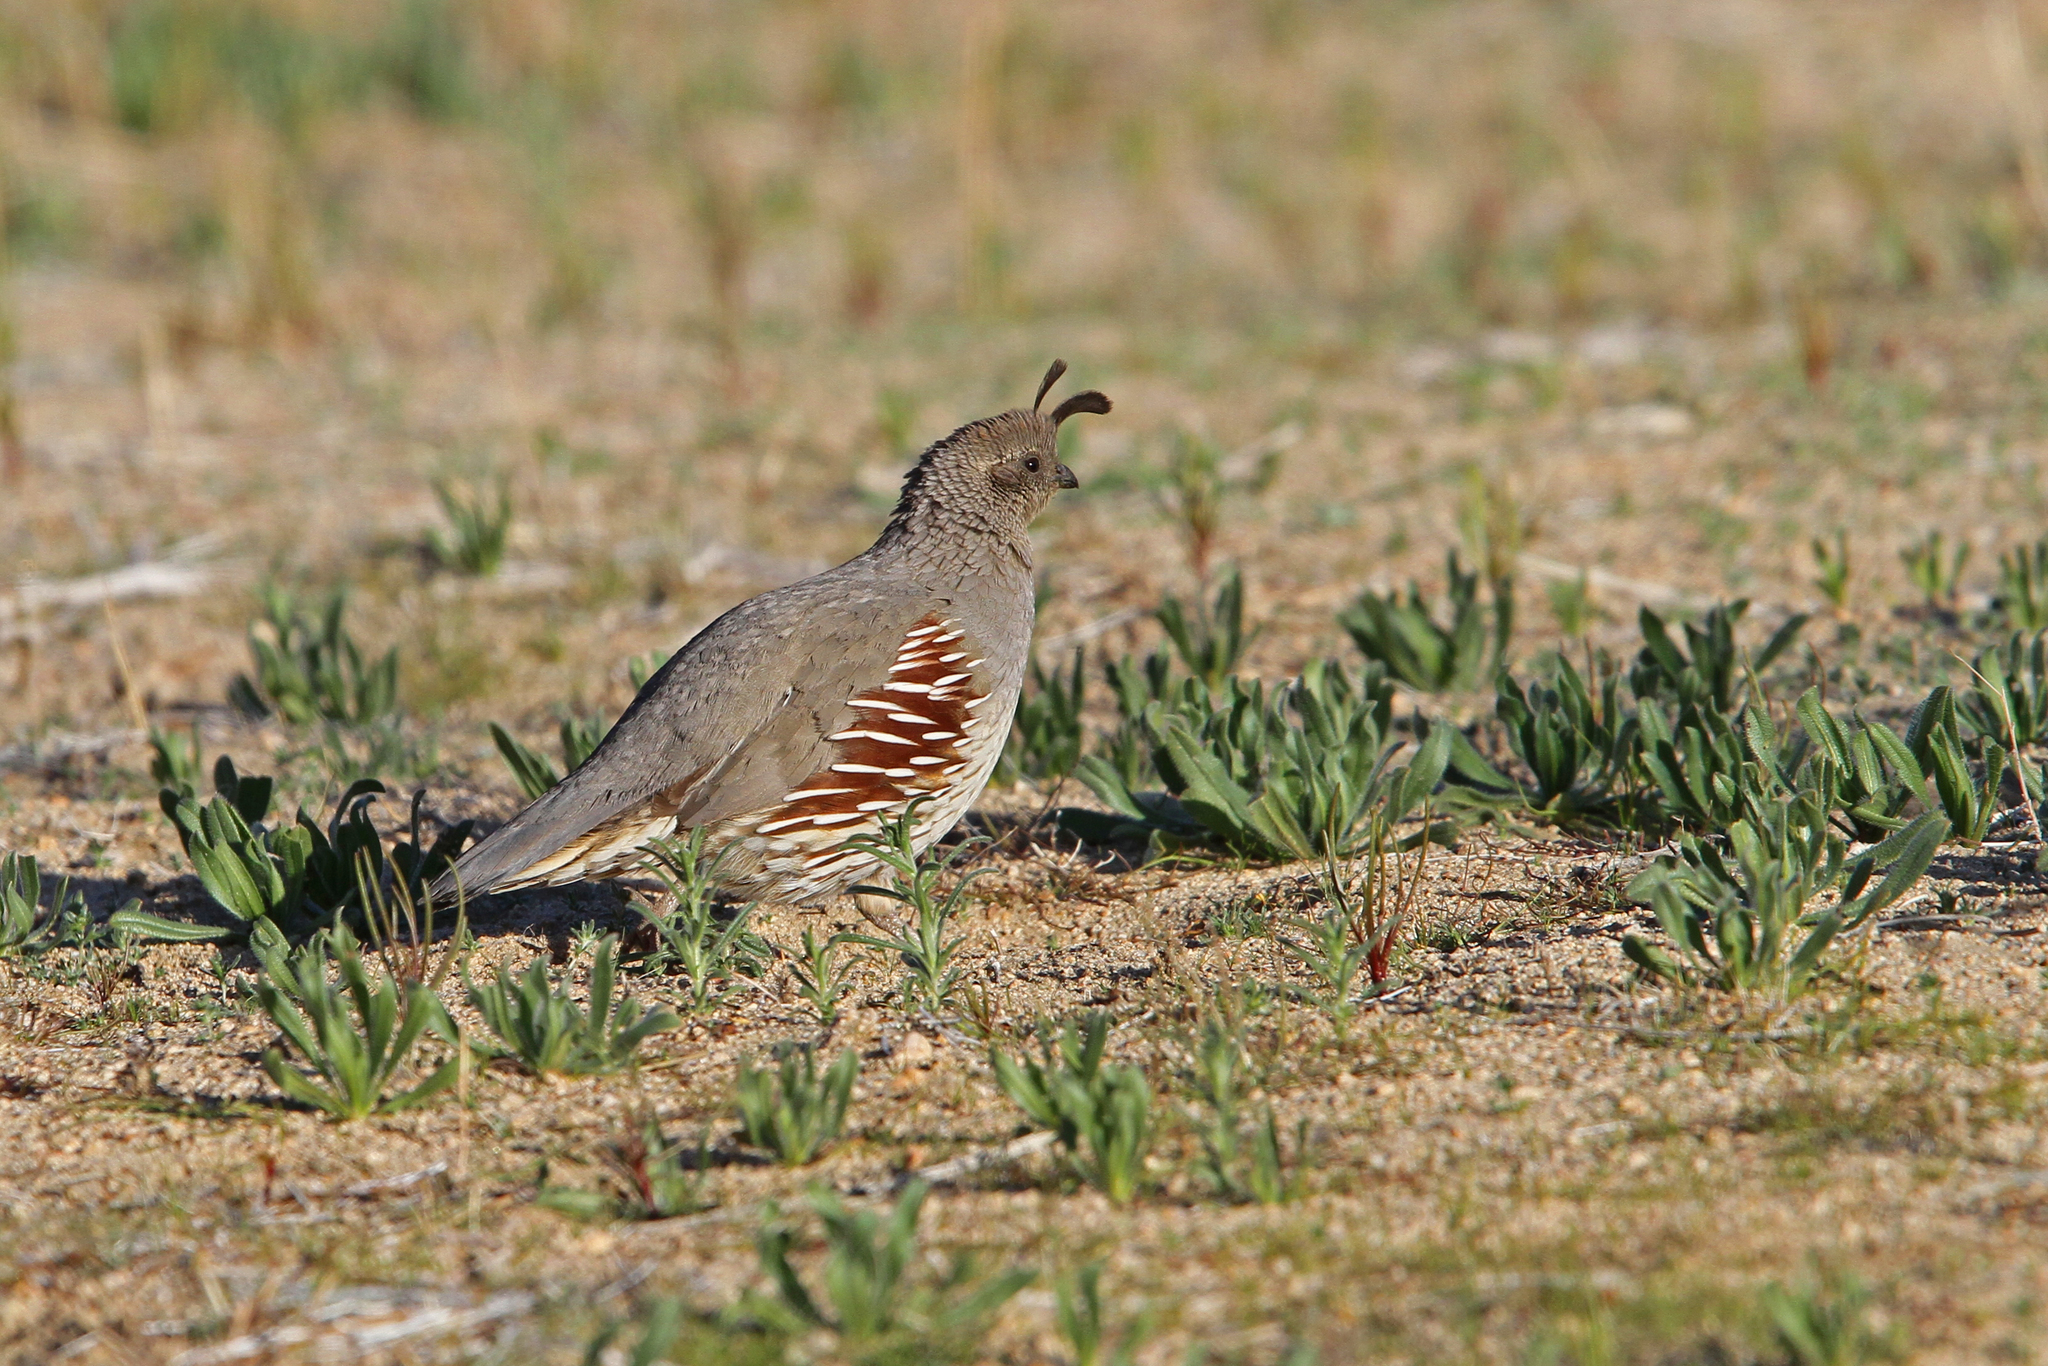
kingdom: Animalia
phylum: Chordata
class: Aves
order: Galliformes
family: Odontophoridae
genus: Callipepla
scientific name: Callipepla gambelii
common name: Gambel's quail
